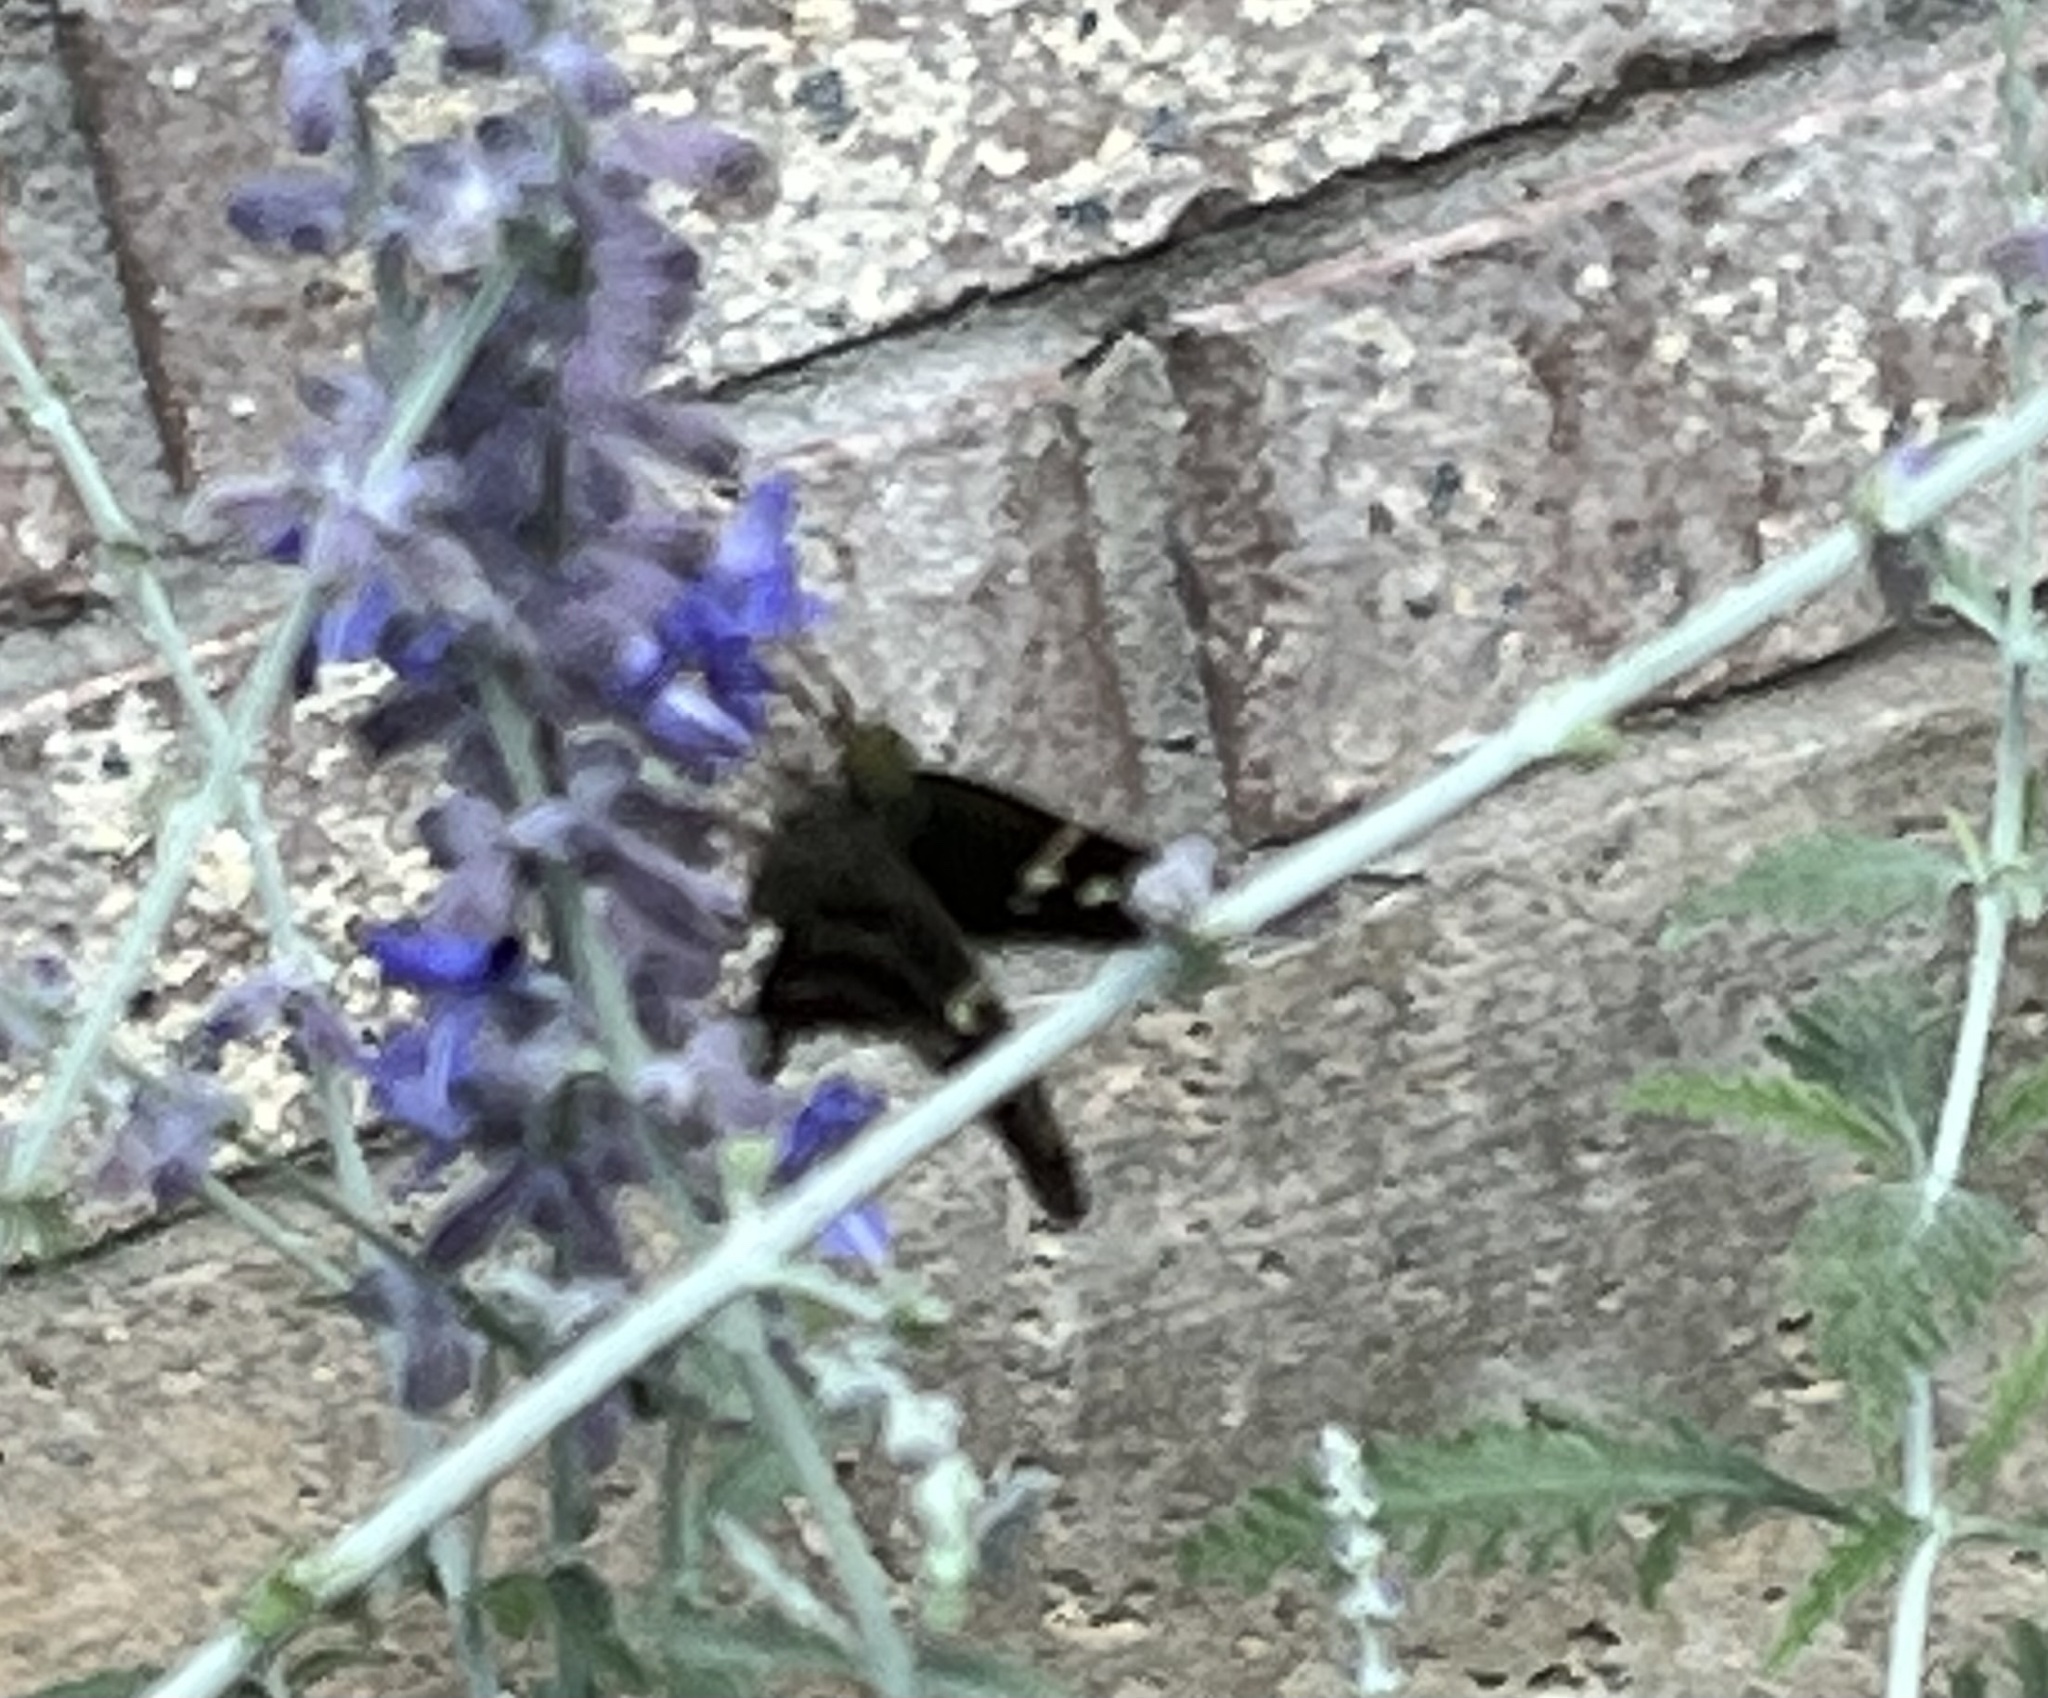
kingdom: Animalia
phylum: Arthropoda
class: Insecta
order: Lepidoptera
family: Hesperiidae
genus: Urbanus
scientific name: Urbanus proteus
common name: Long-tailed skipper
